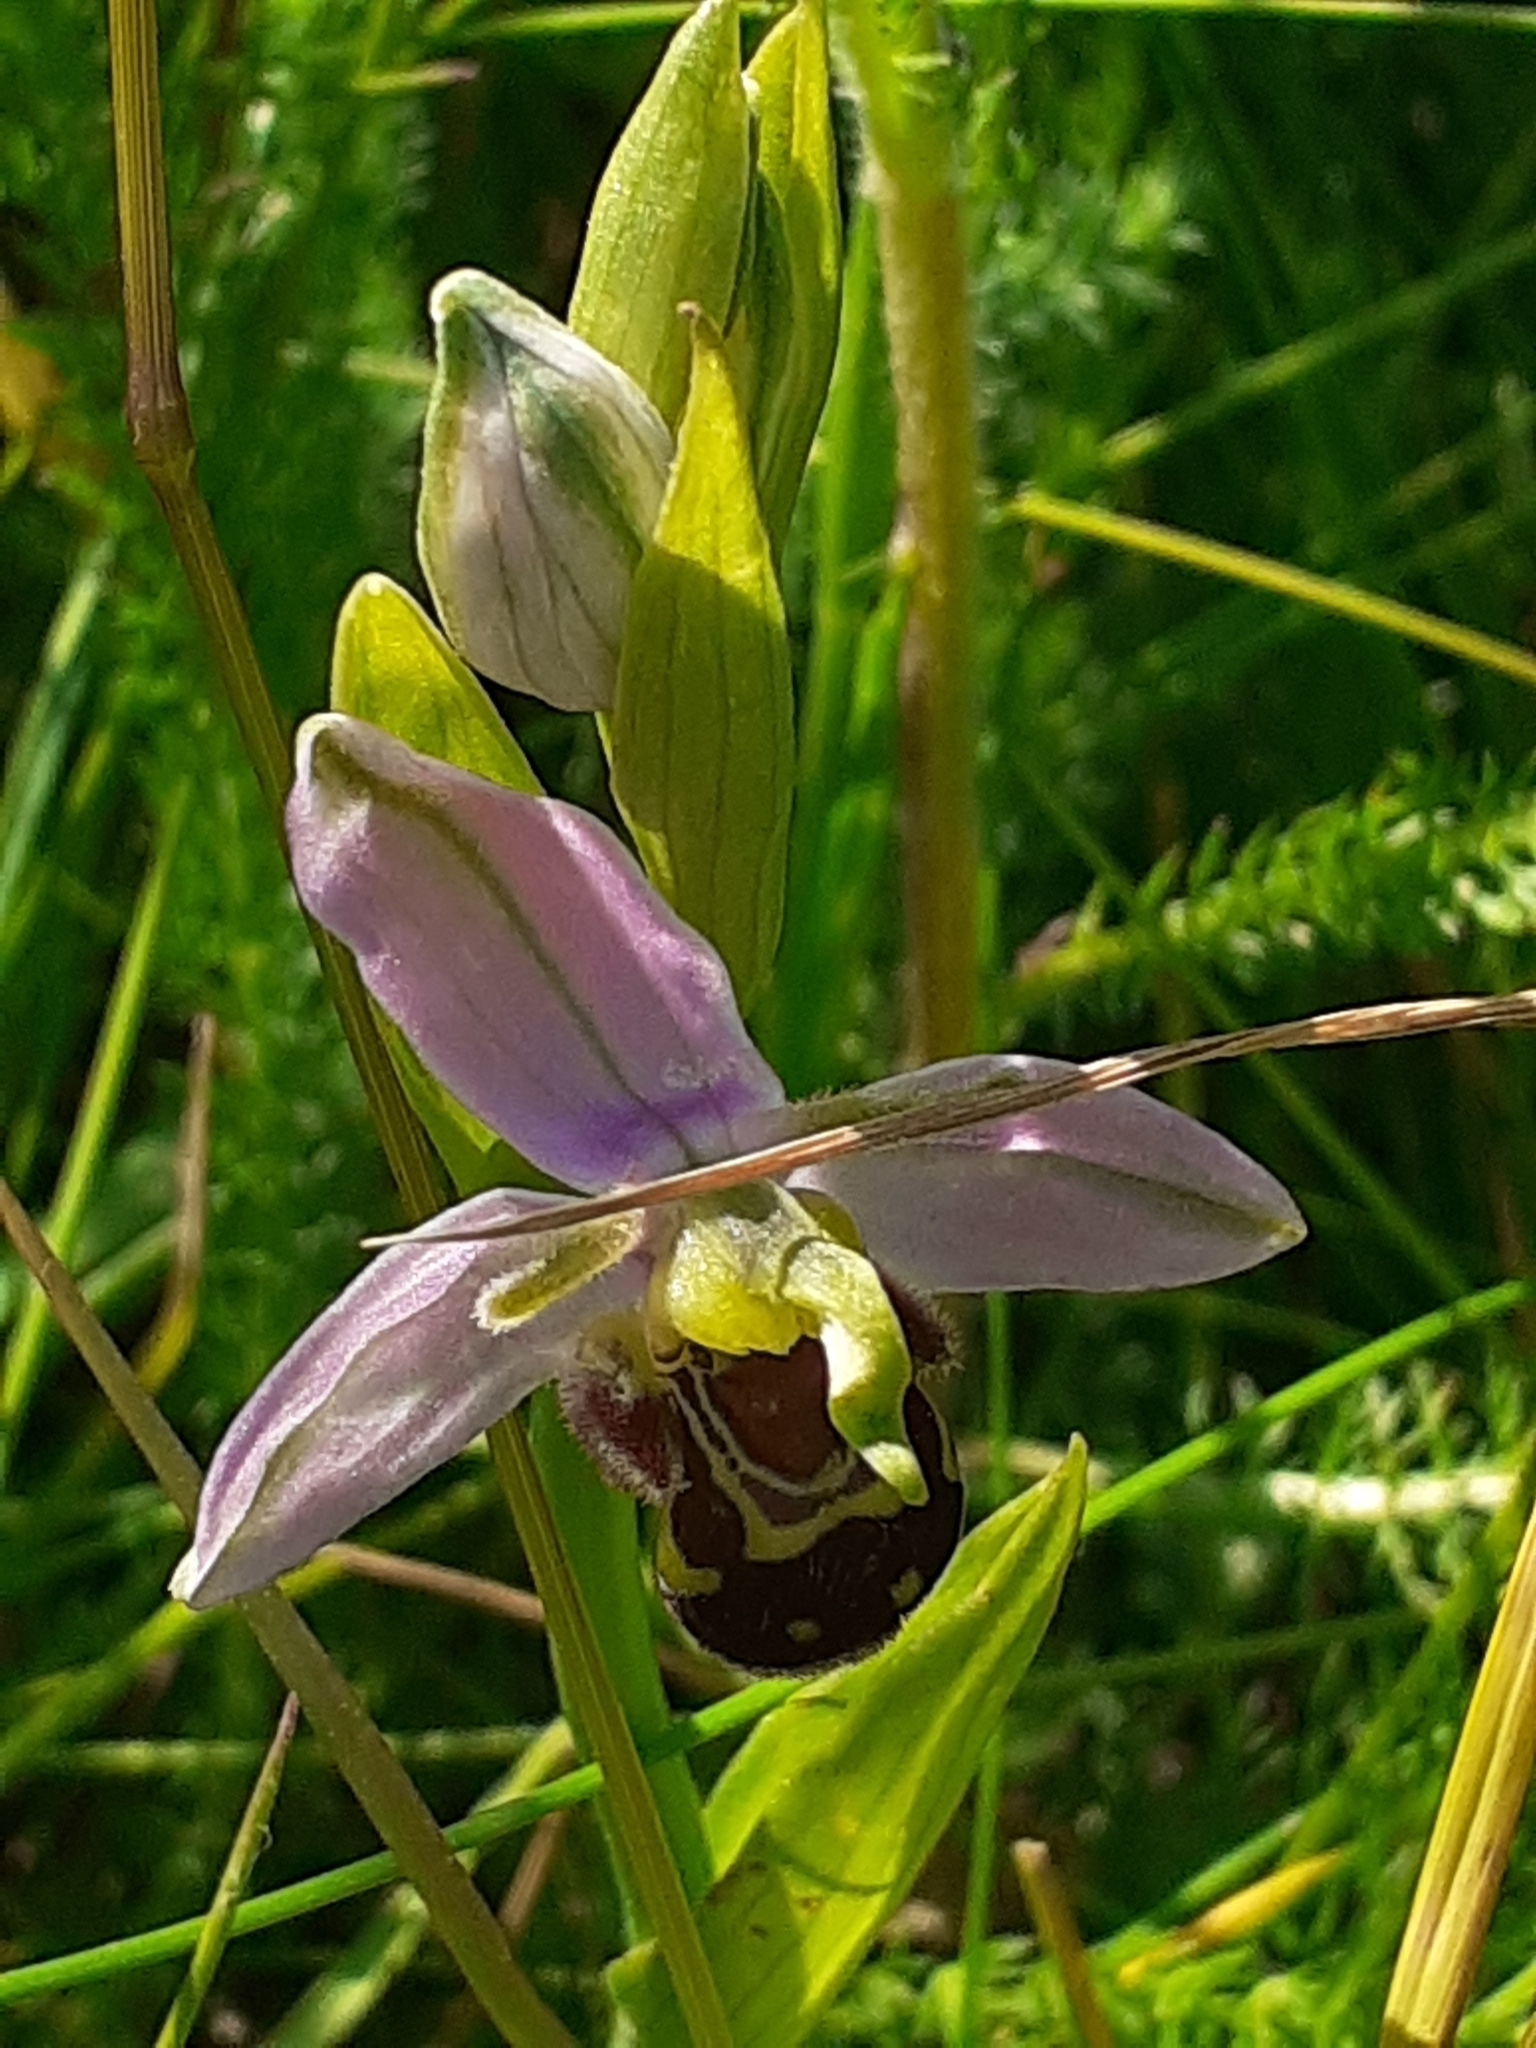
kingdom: Plantae
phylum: Tracheophyta
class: Liliopsida
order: Asparagales
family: Orchidaceae
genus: Ophrys
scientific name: Ophrys apifera
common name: Bee orchid
